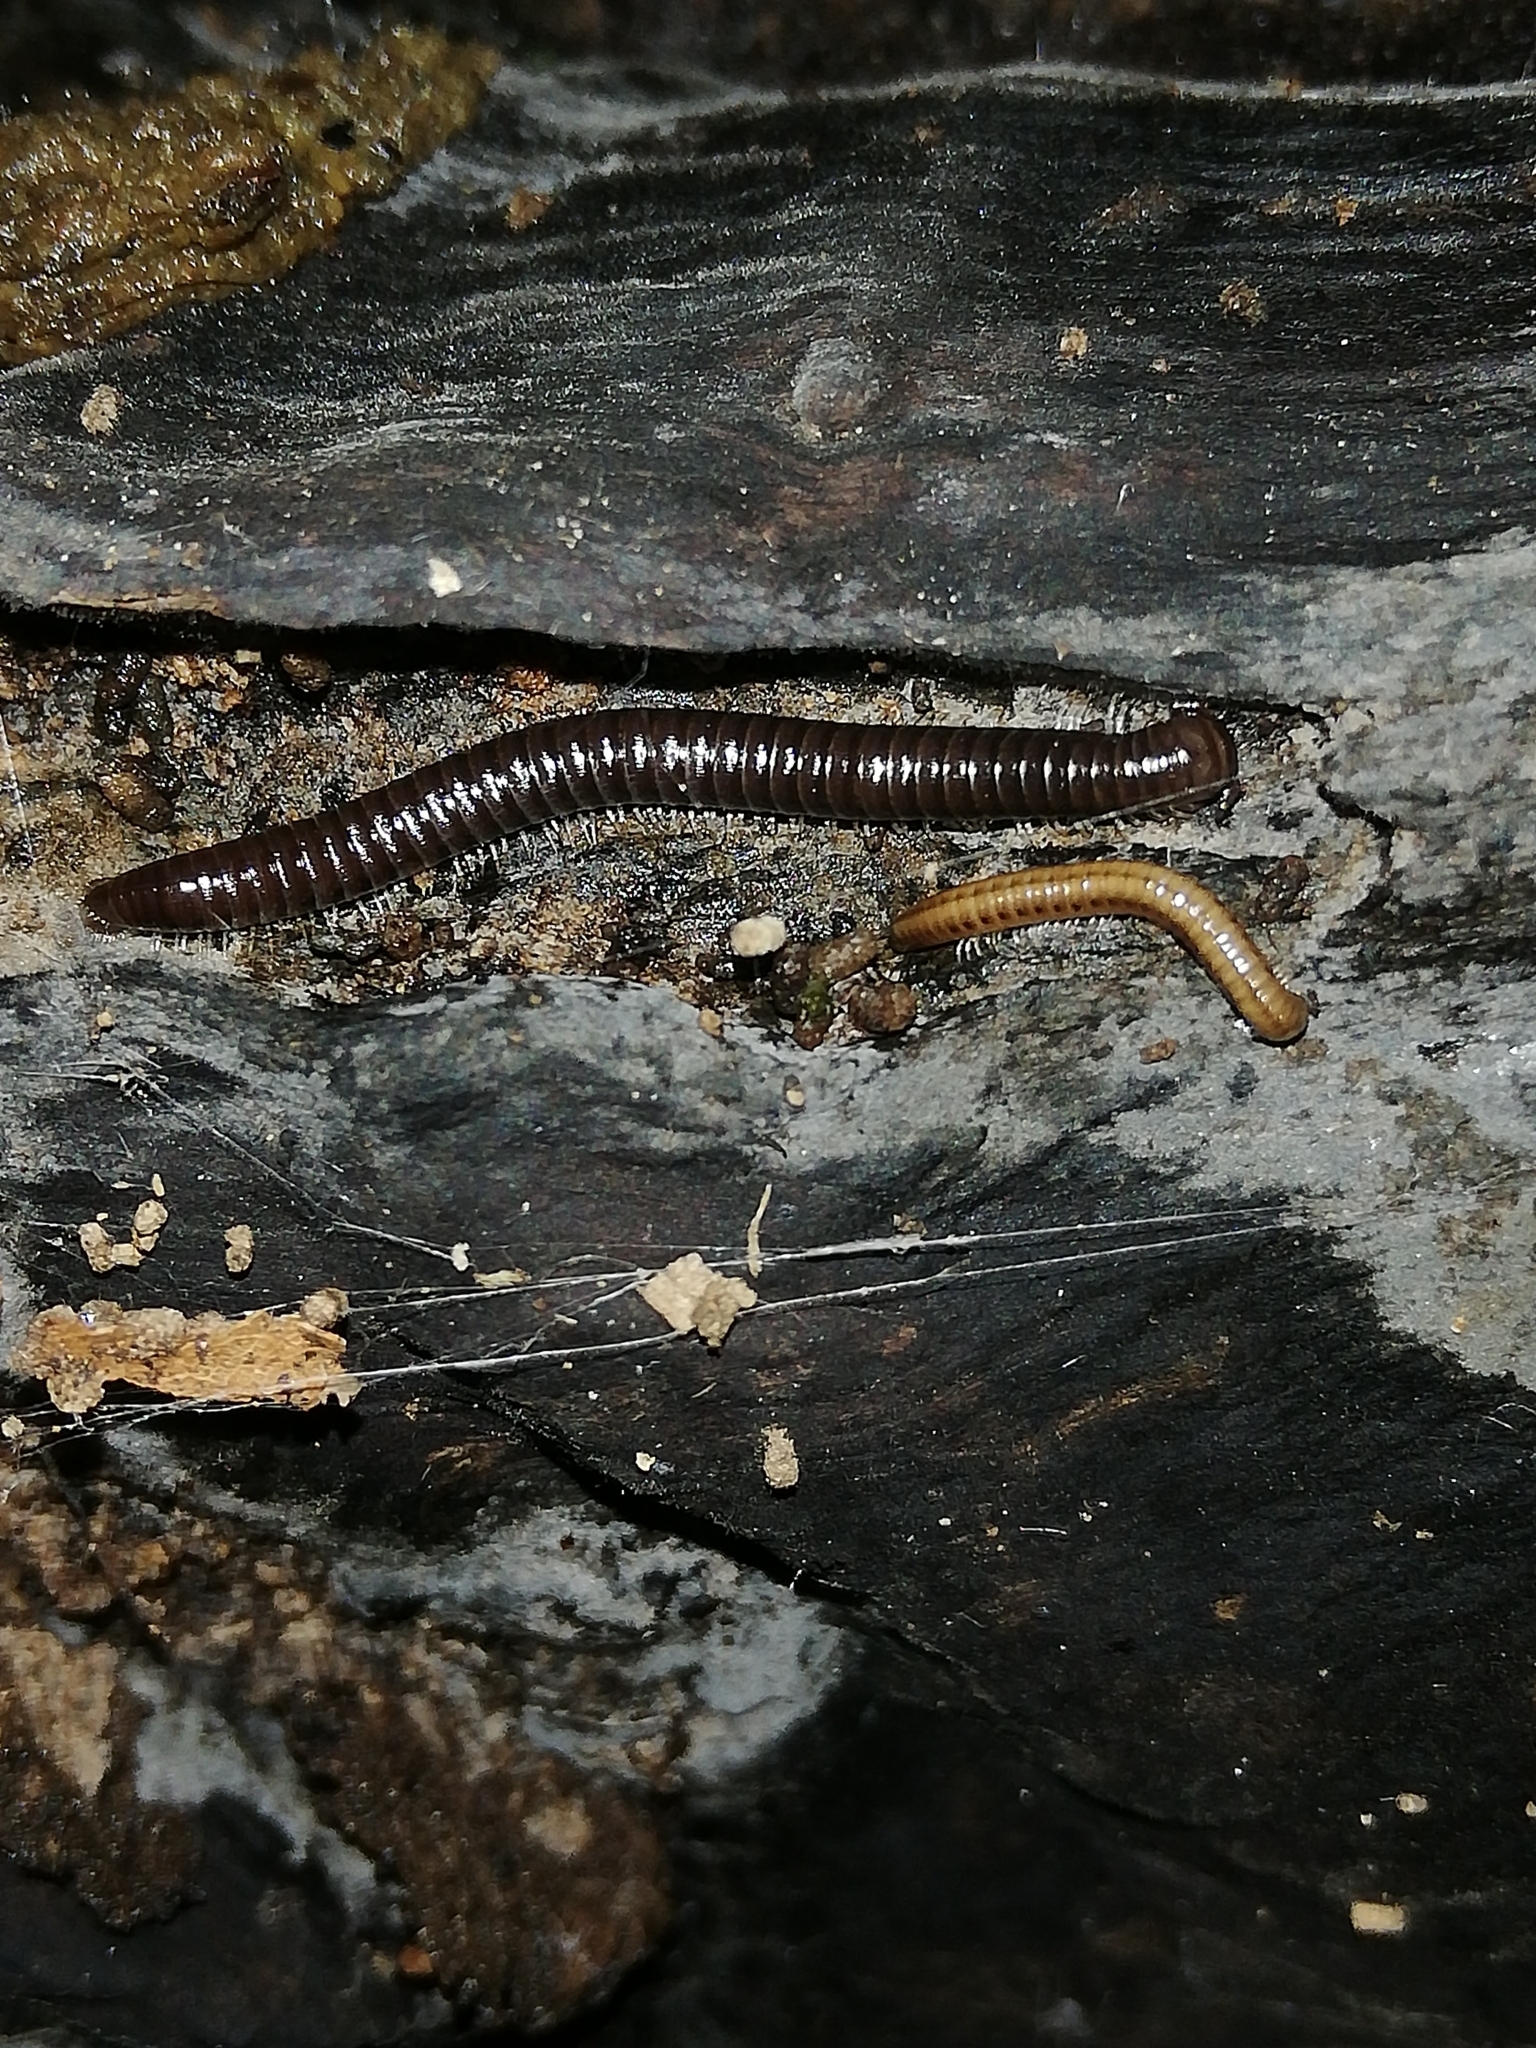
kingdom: Animalia
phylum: Arthropoda
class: Diplopoda
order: Julida
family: Julidae
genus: Tachypodoiulus
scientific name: Tachypodoiulus niger
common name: White-legged snake millipede
